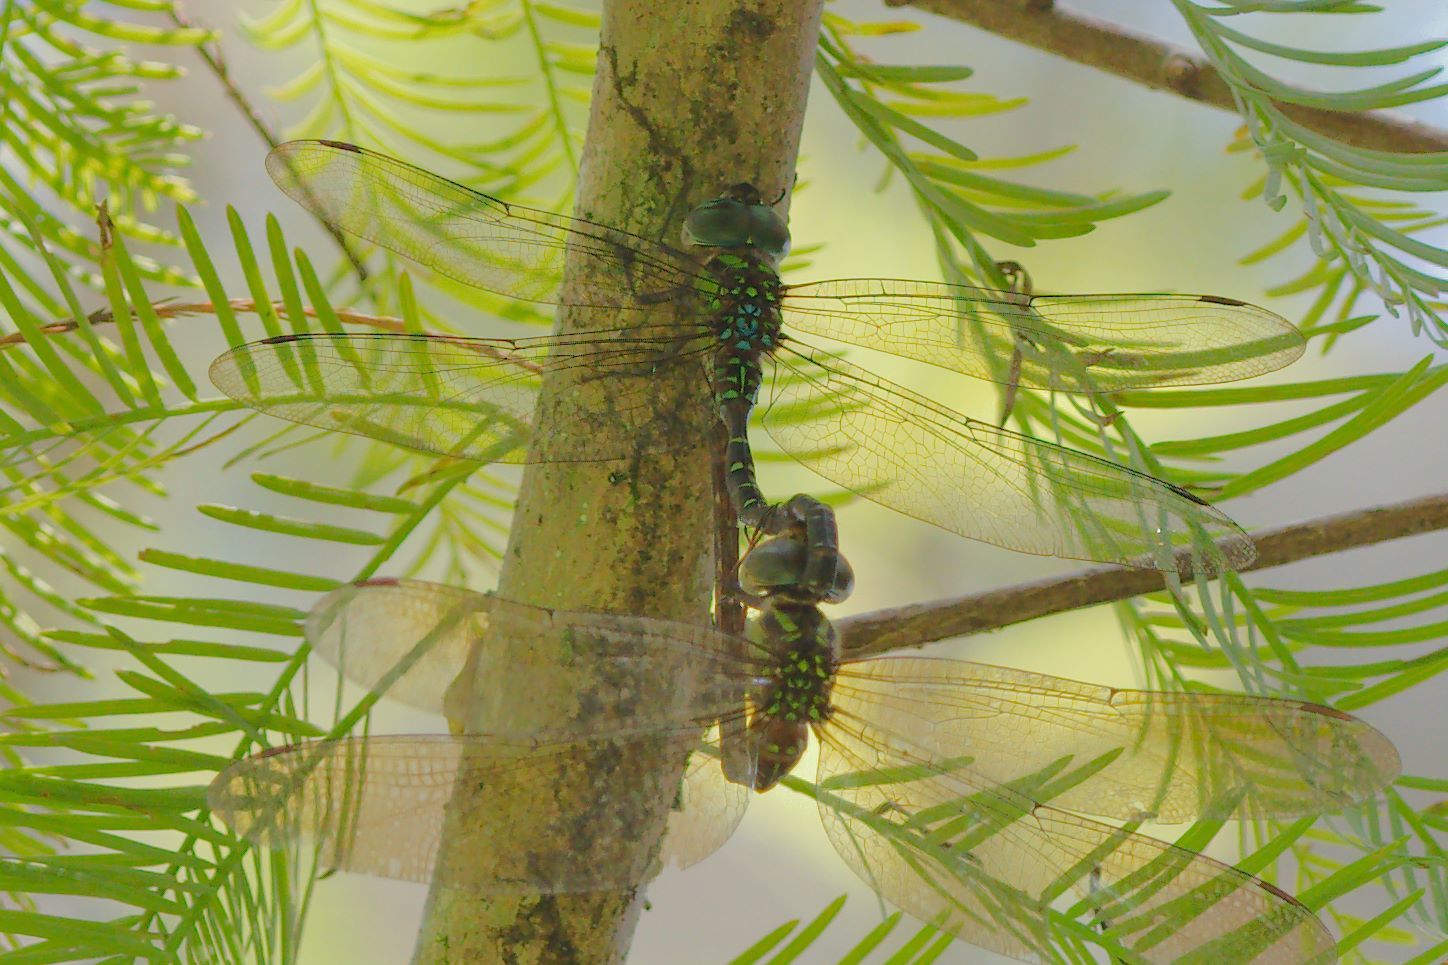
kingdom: Animalia
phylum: Arthropoda
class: Insecta
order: Odonata
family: Aeshnidae
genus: Triacanthagyna
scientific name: Triacanthagyna trifida
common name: Phantom darner
